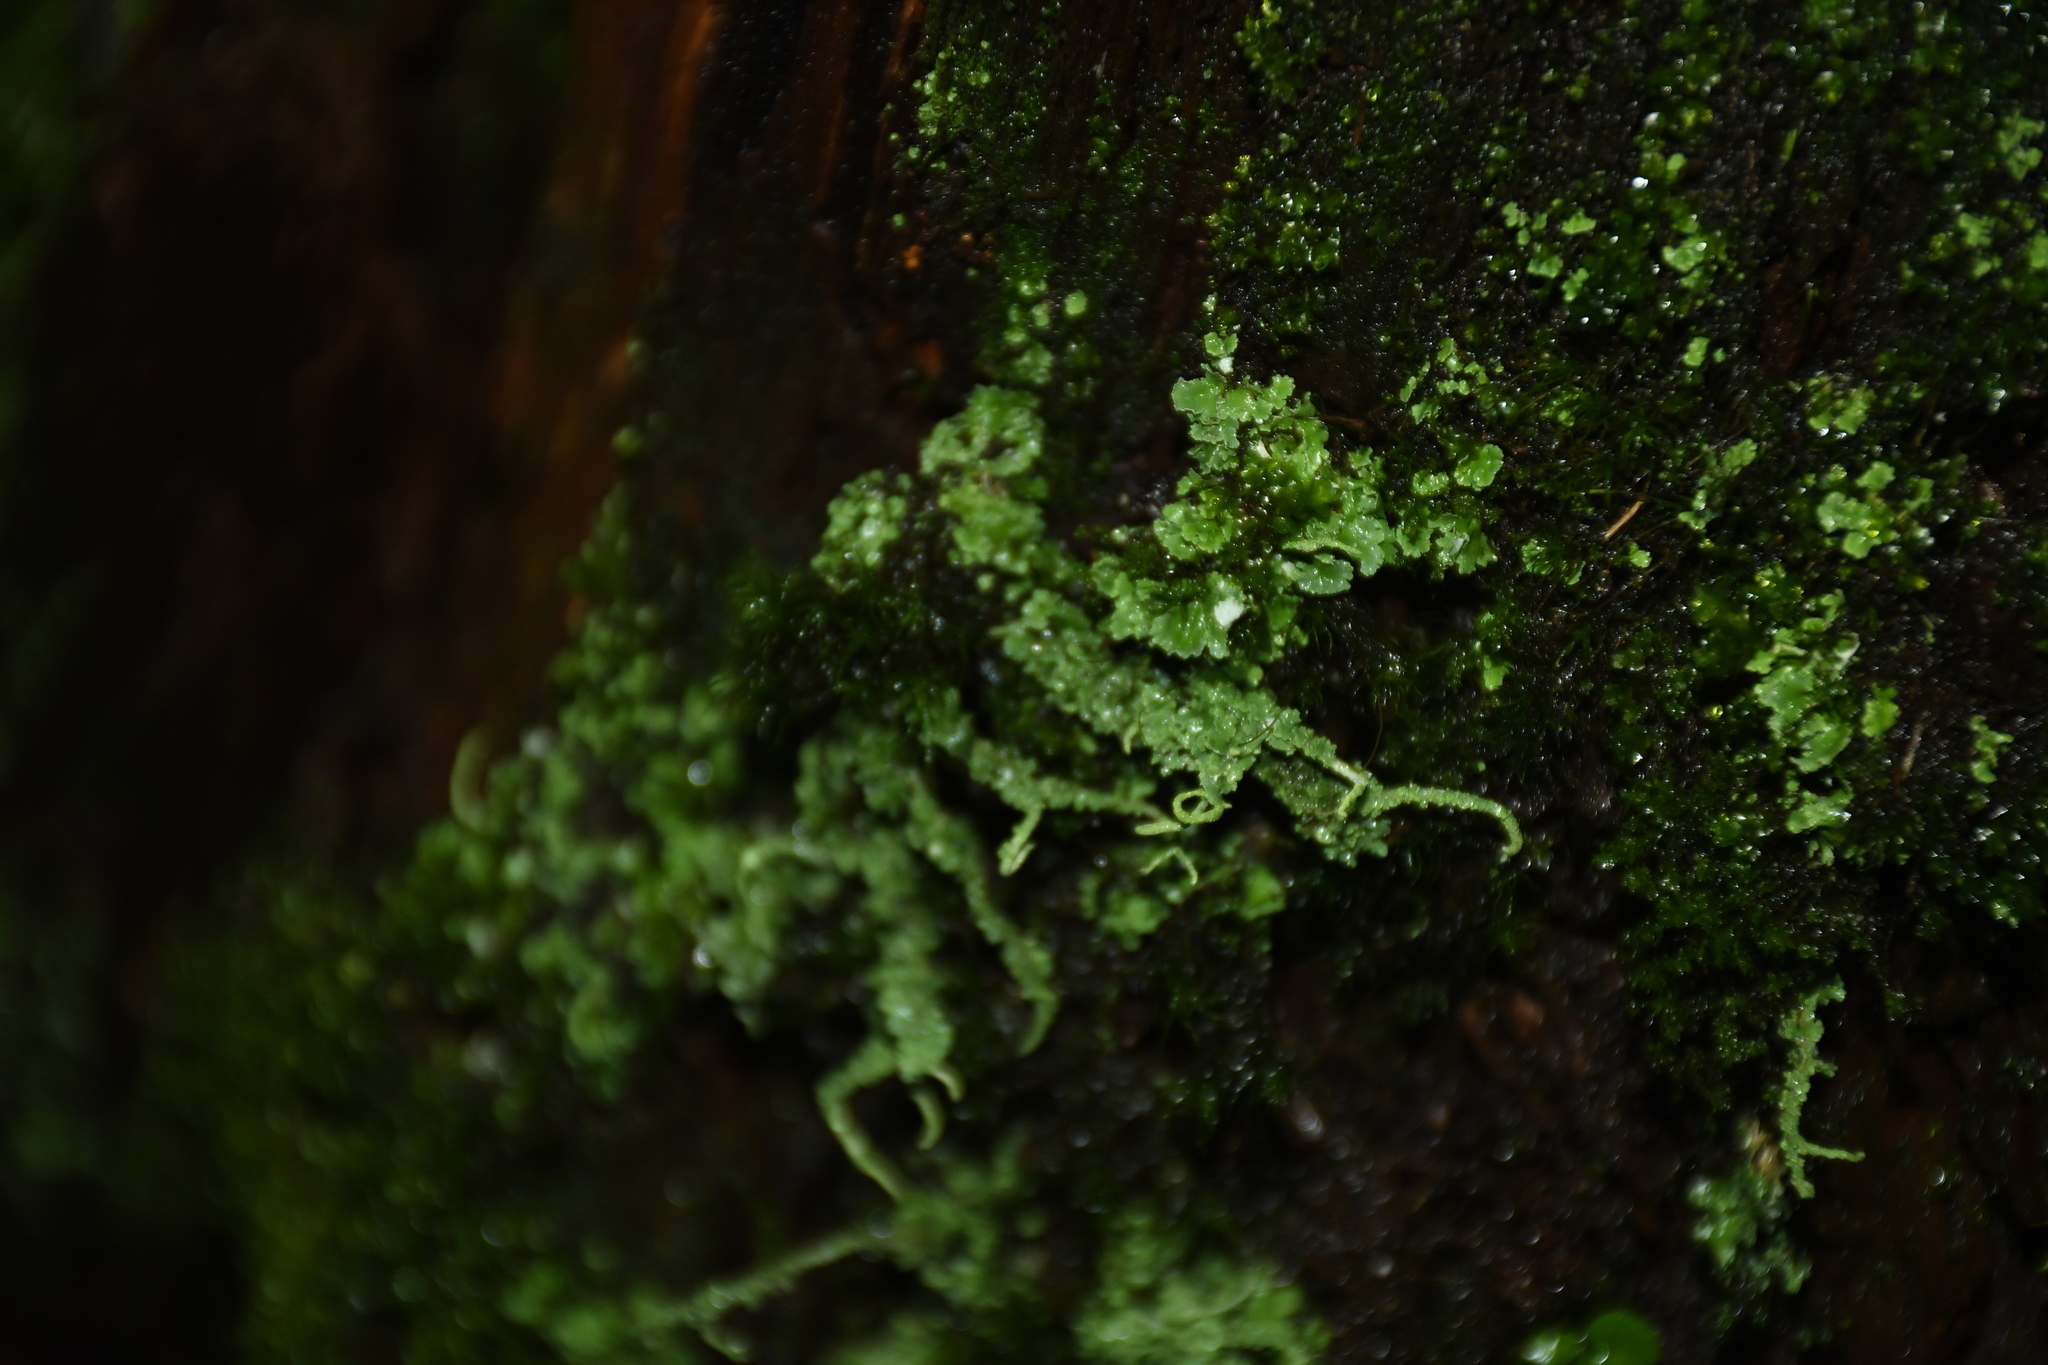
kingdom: Fungi
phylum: Ascomycota
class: Lecanoromycetes
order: Lecanorales
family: Cladoniaceae
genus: Cladonia
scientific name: Cladonia
